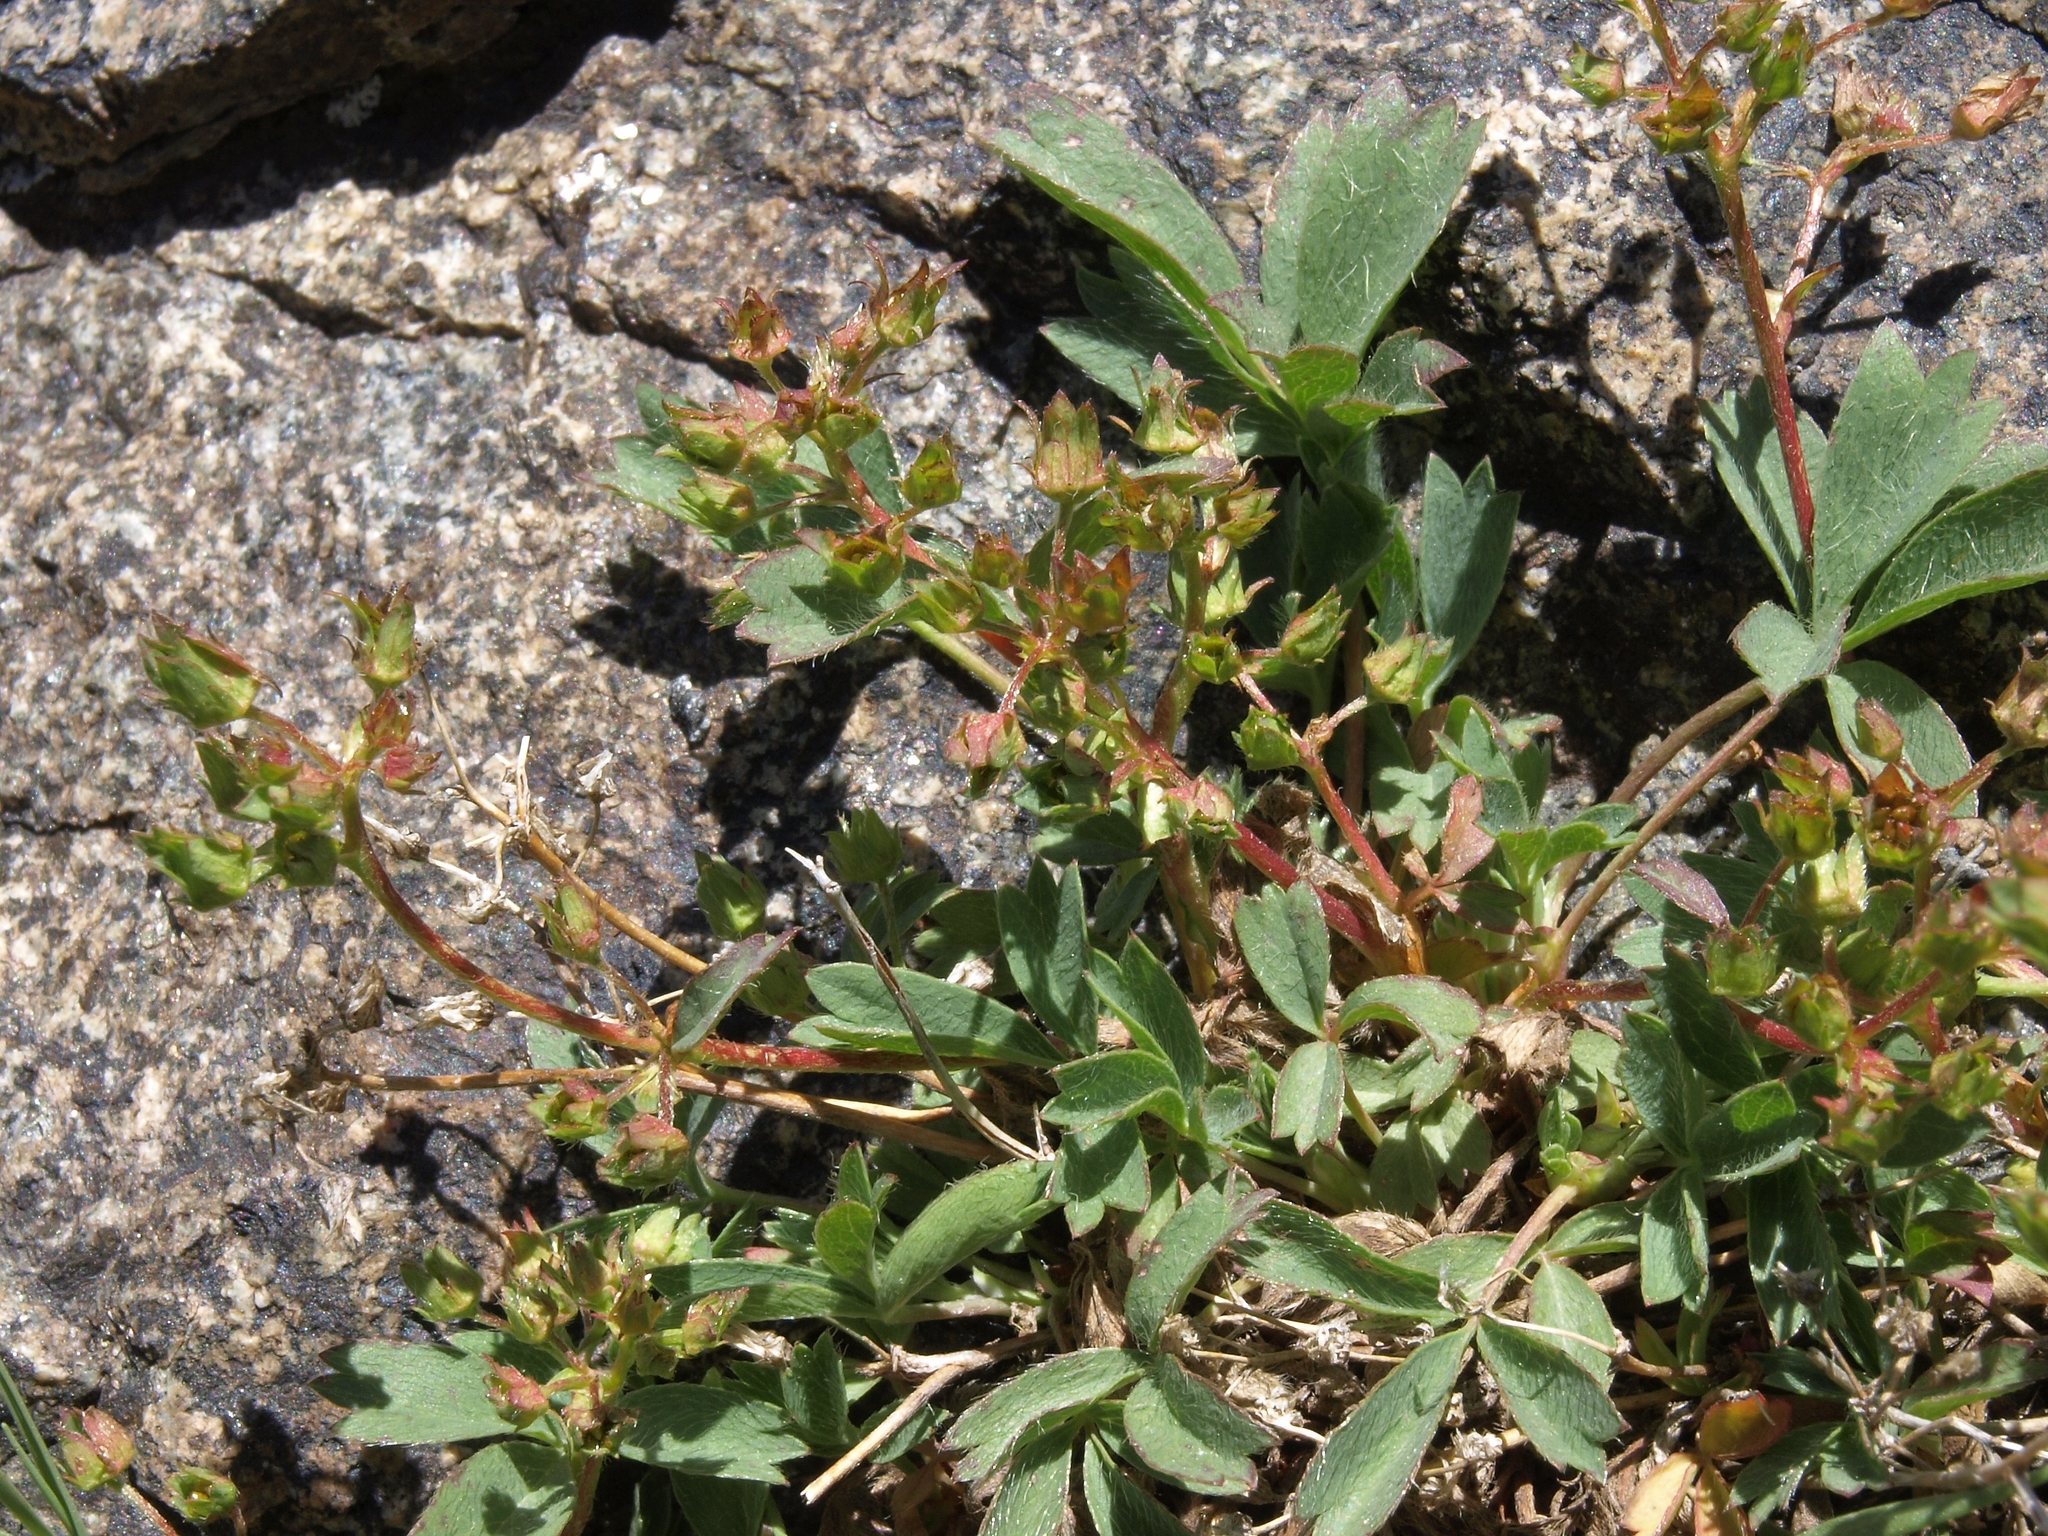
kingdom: Plantae
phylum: Tracheophyta
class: Magnoliopsida
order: Rosales
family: Rosaceae
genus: Sibbaldia
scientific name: Sibbaldia procumbens
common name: Creeping sibbaldia
